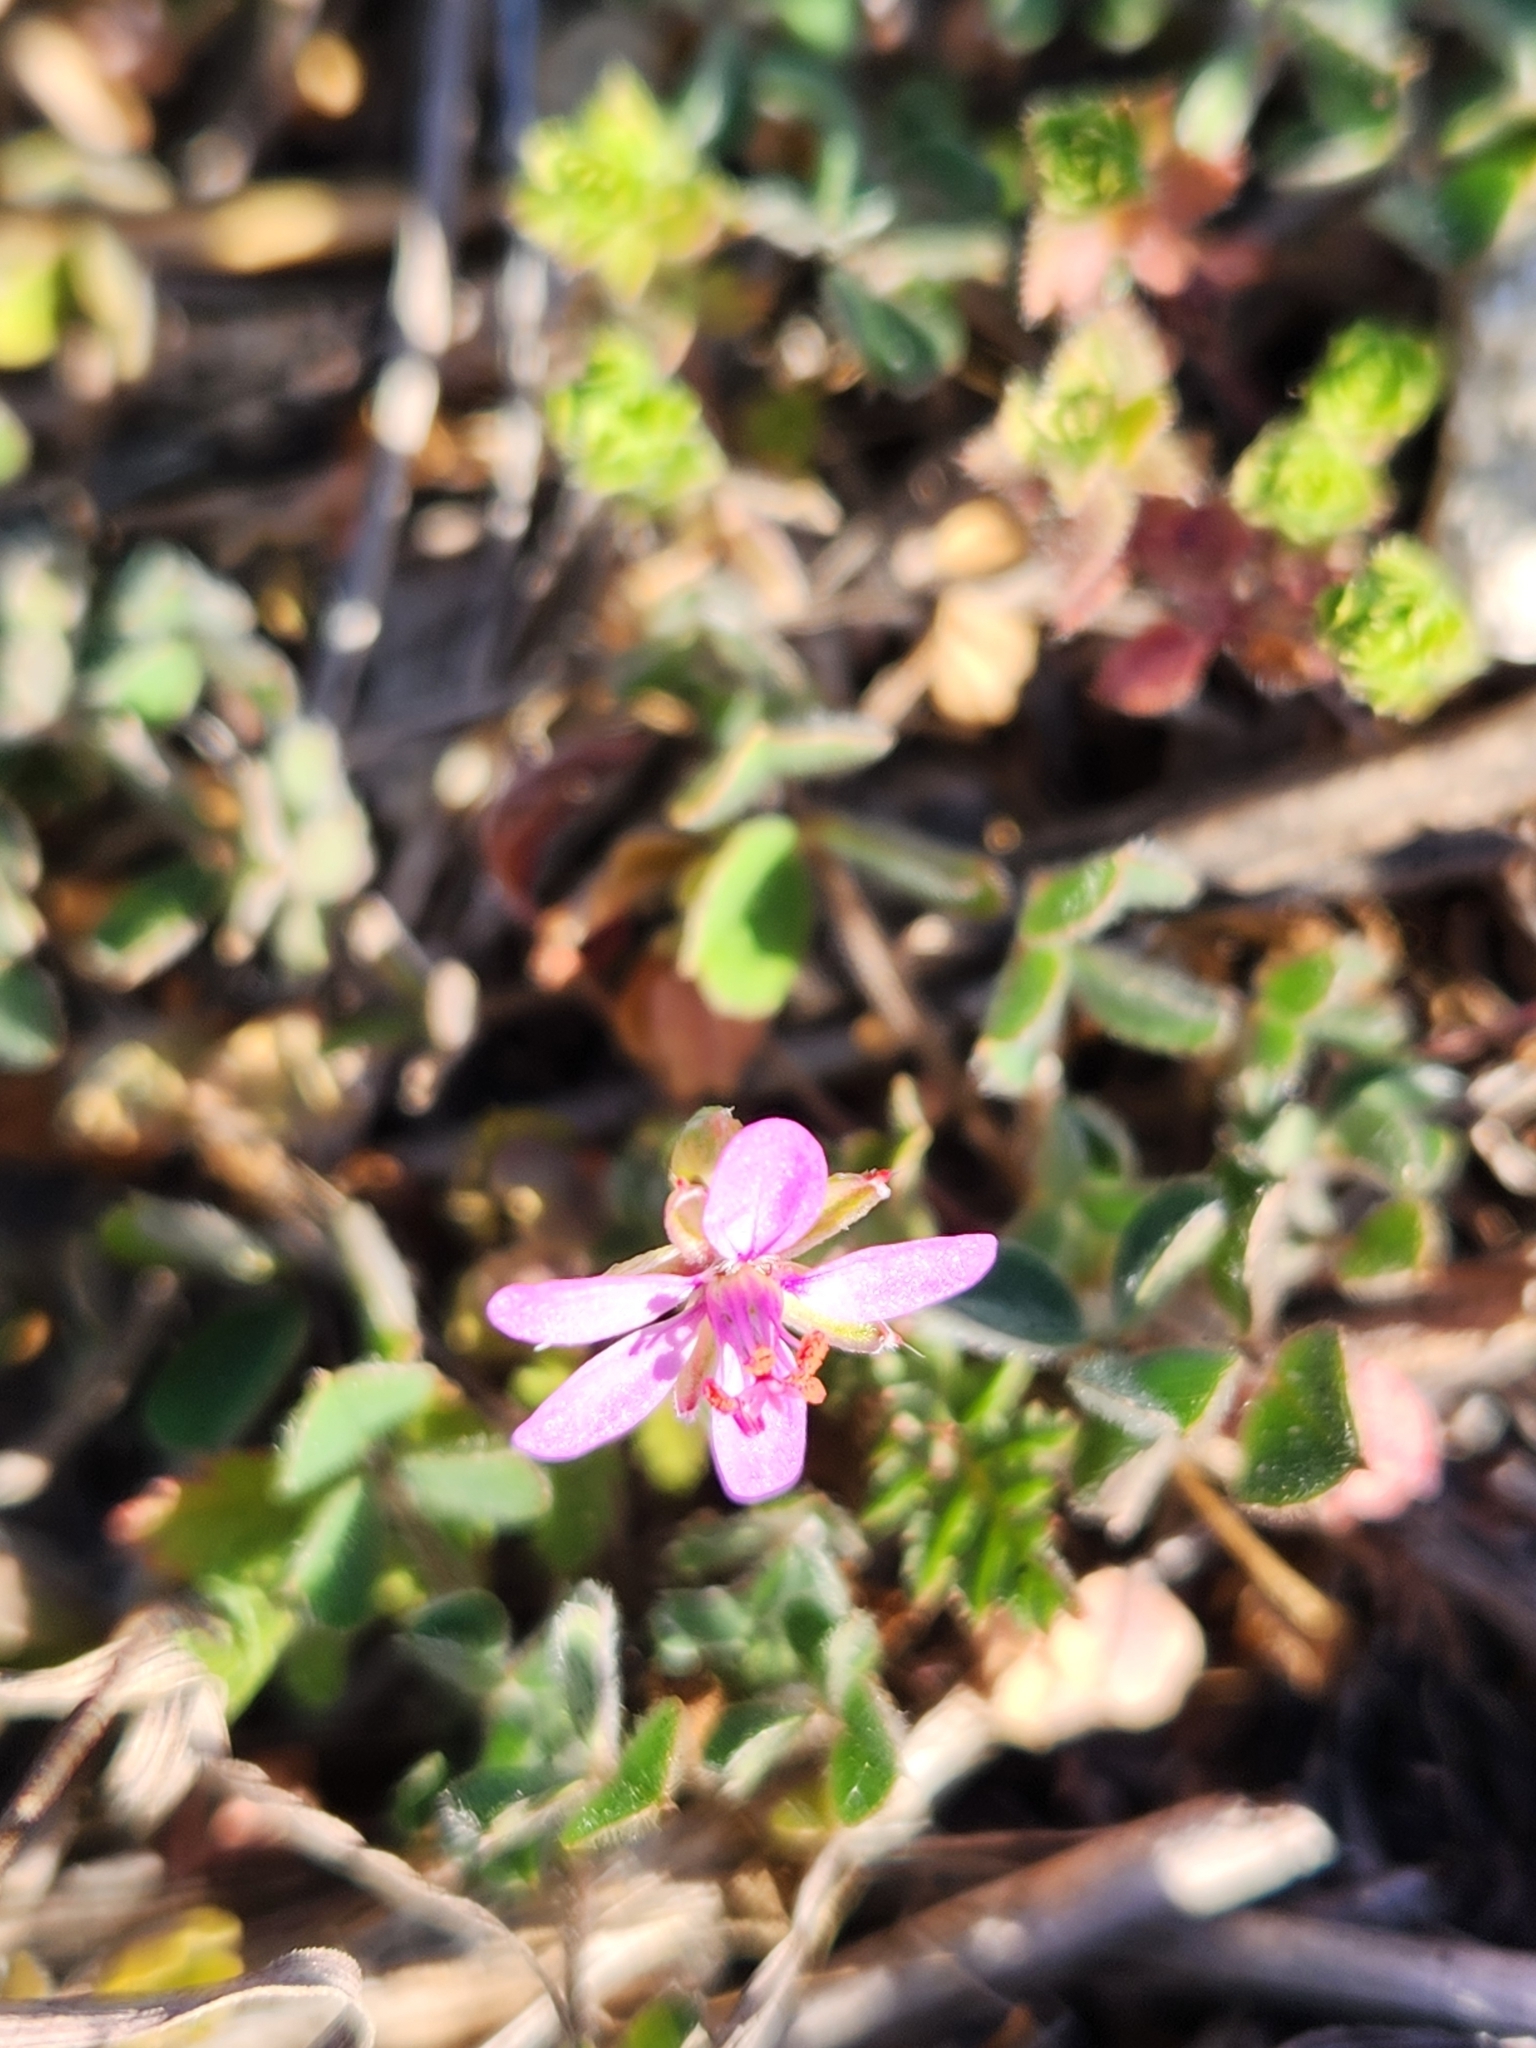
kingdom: Plantae
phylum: Tracheophyta
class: Magnoliopsida
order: Geraniales
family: Geraniaceae
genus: Erodium
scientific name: Erodium cicutarium
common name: Common stork's-bill
